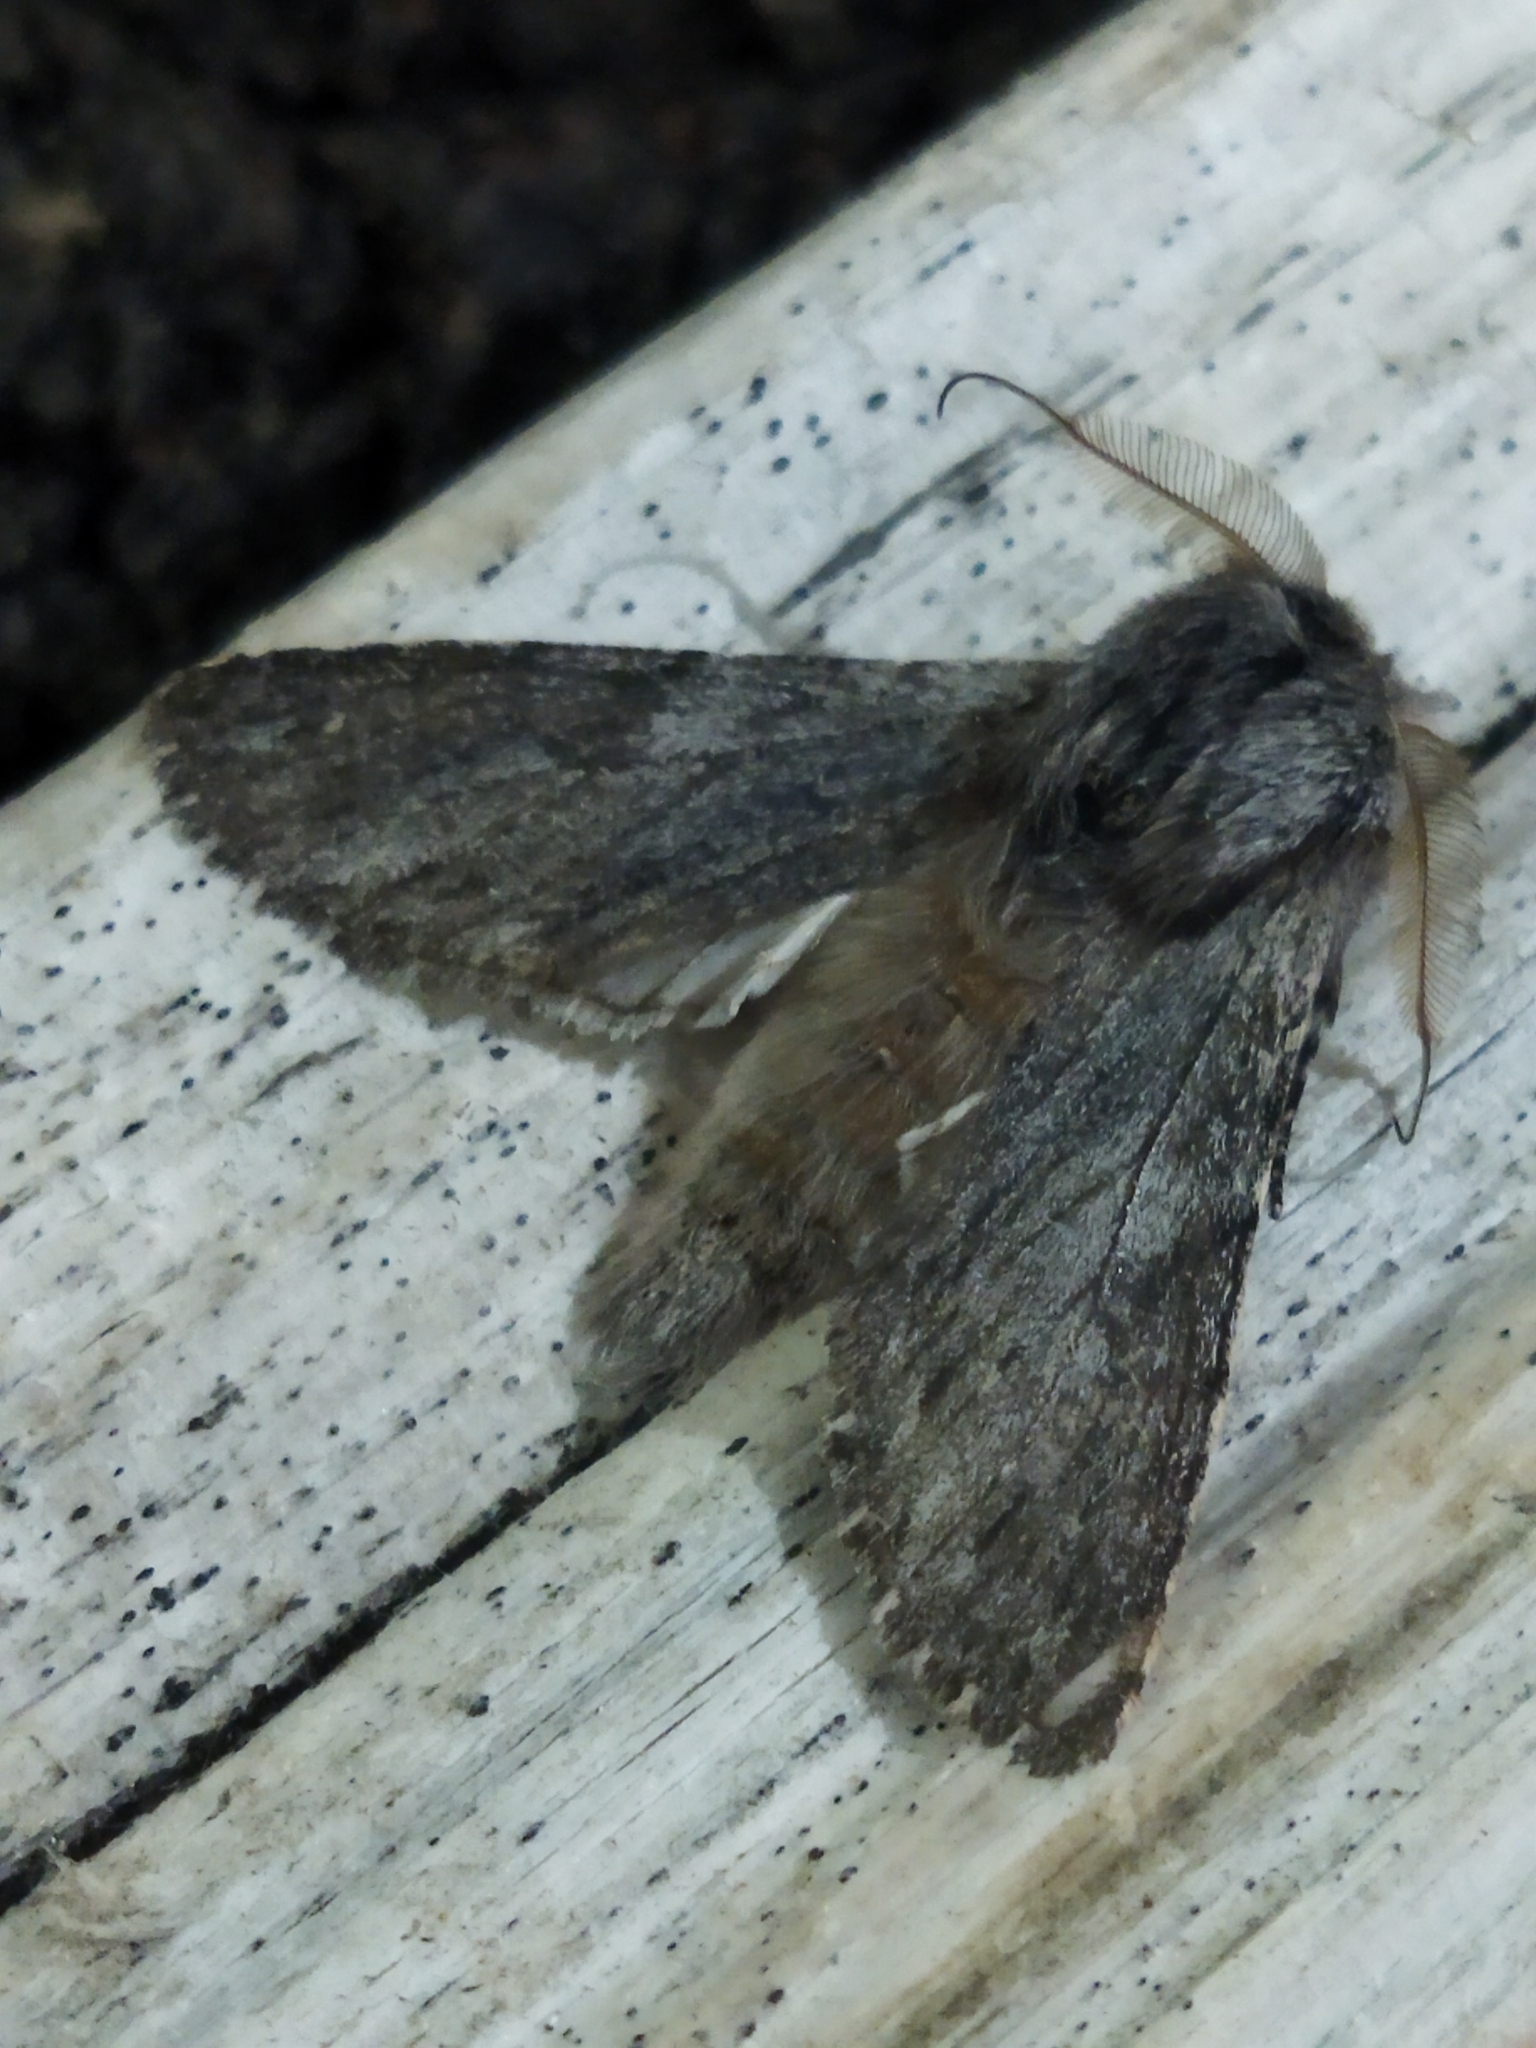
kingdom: Animalia
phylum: Arthropoda
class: Insecta
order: Lepidoptera
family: Notodontidae
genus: Dicranura
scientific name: Dicranura ulmi
